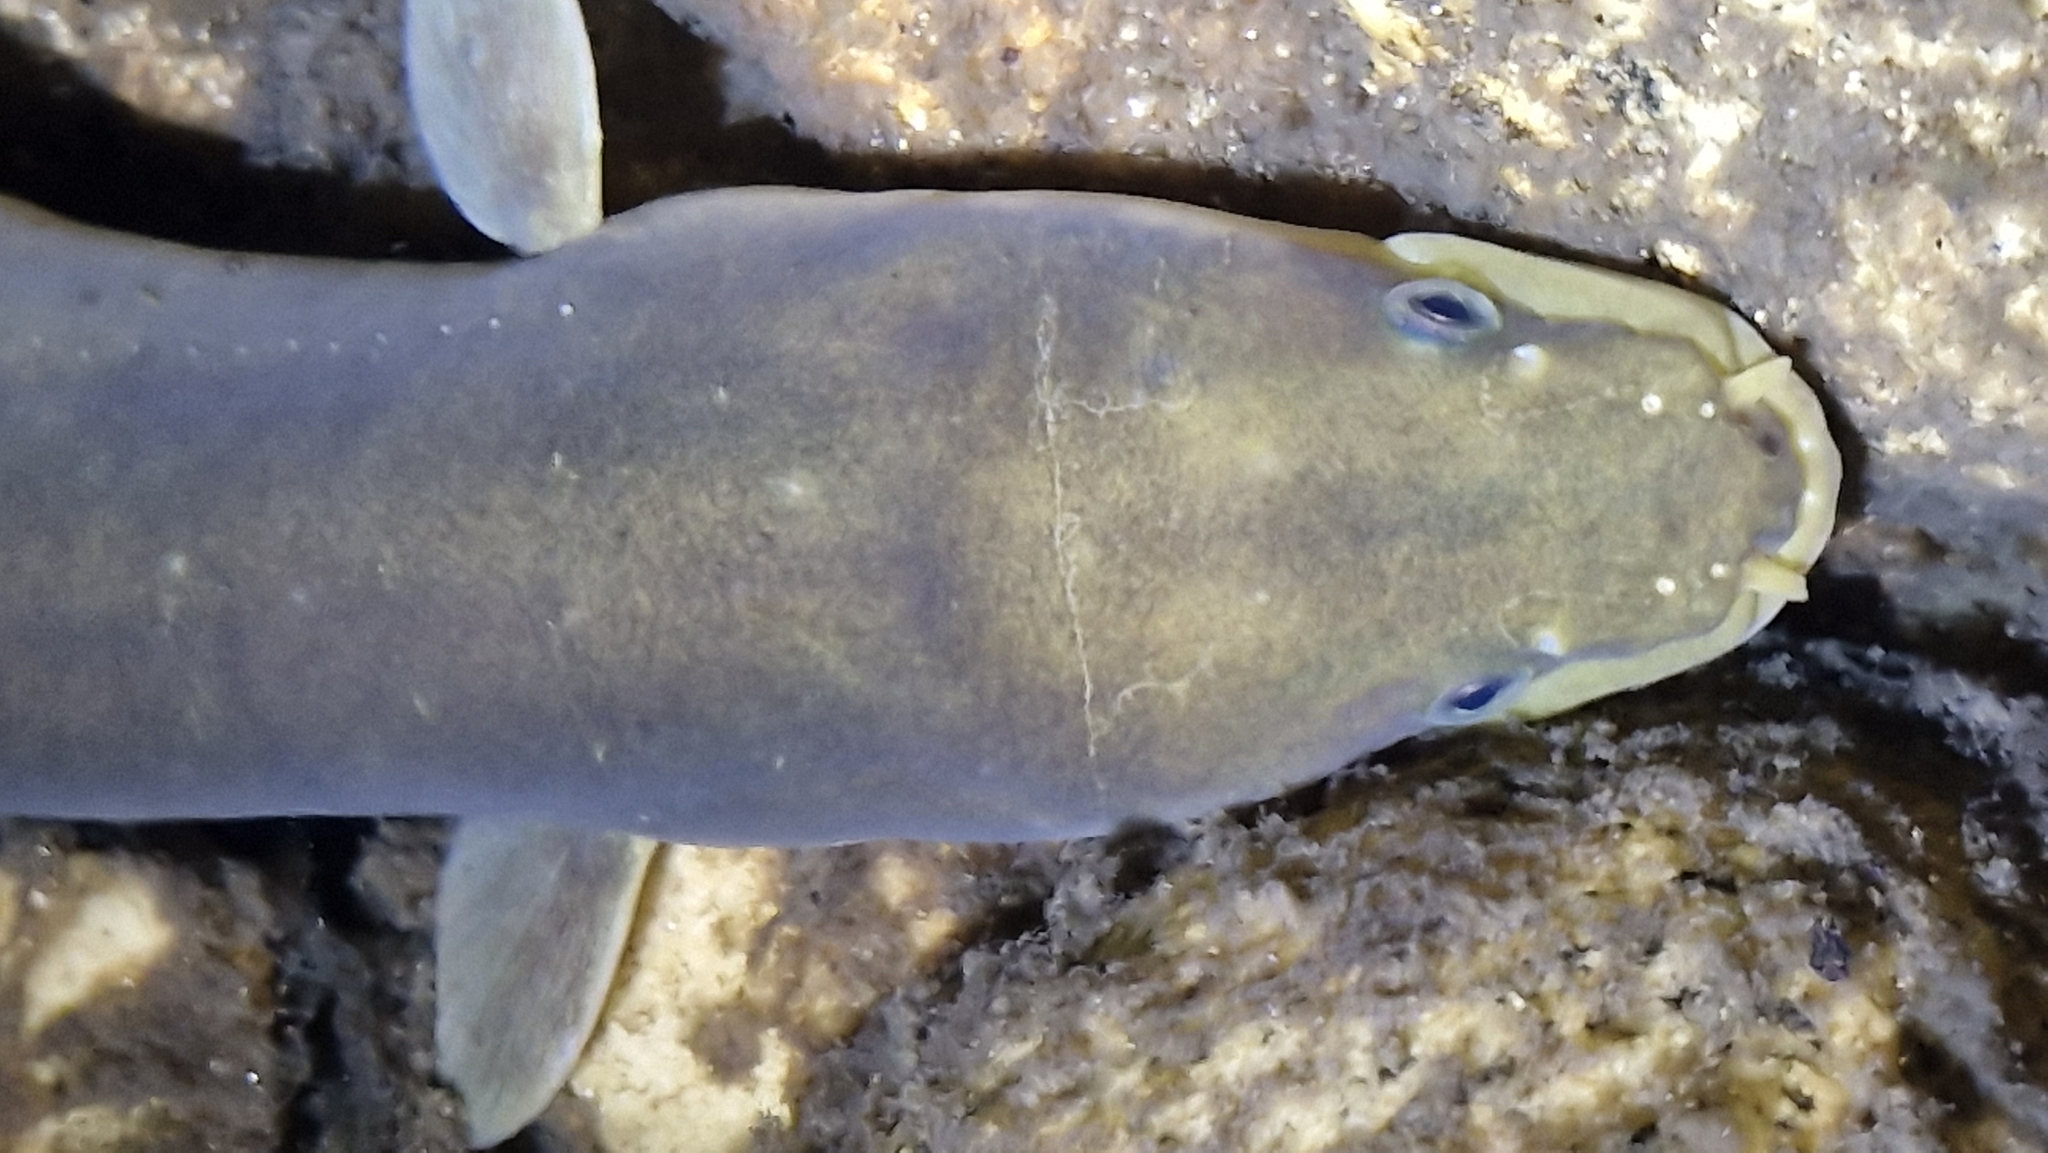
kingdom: Animalia
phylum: Chordata
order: Anguilliformes
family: Anguillidae
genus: Anguilla
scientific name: Anguilla dieffenbachii
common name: New zealand longfin eel
